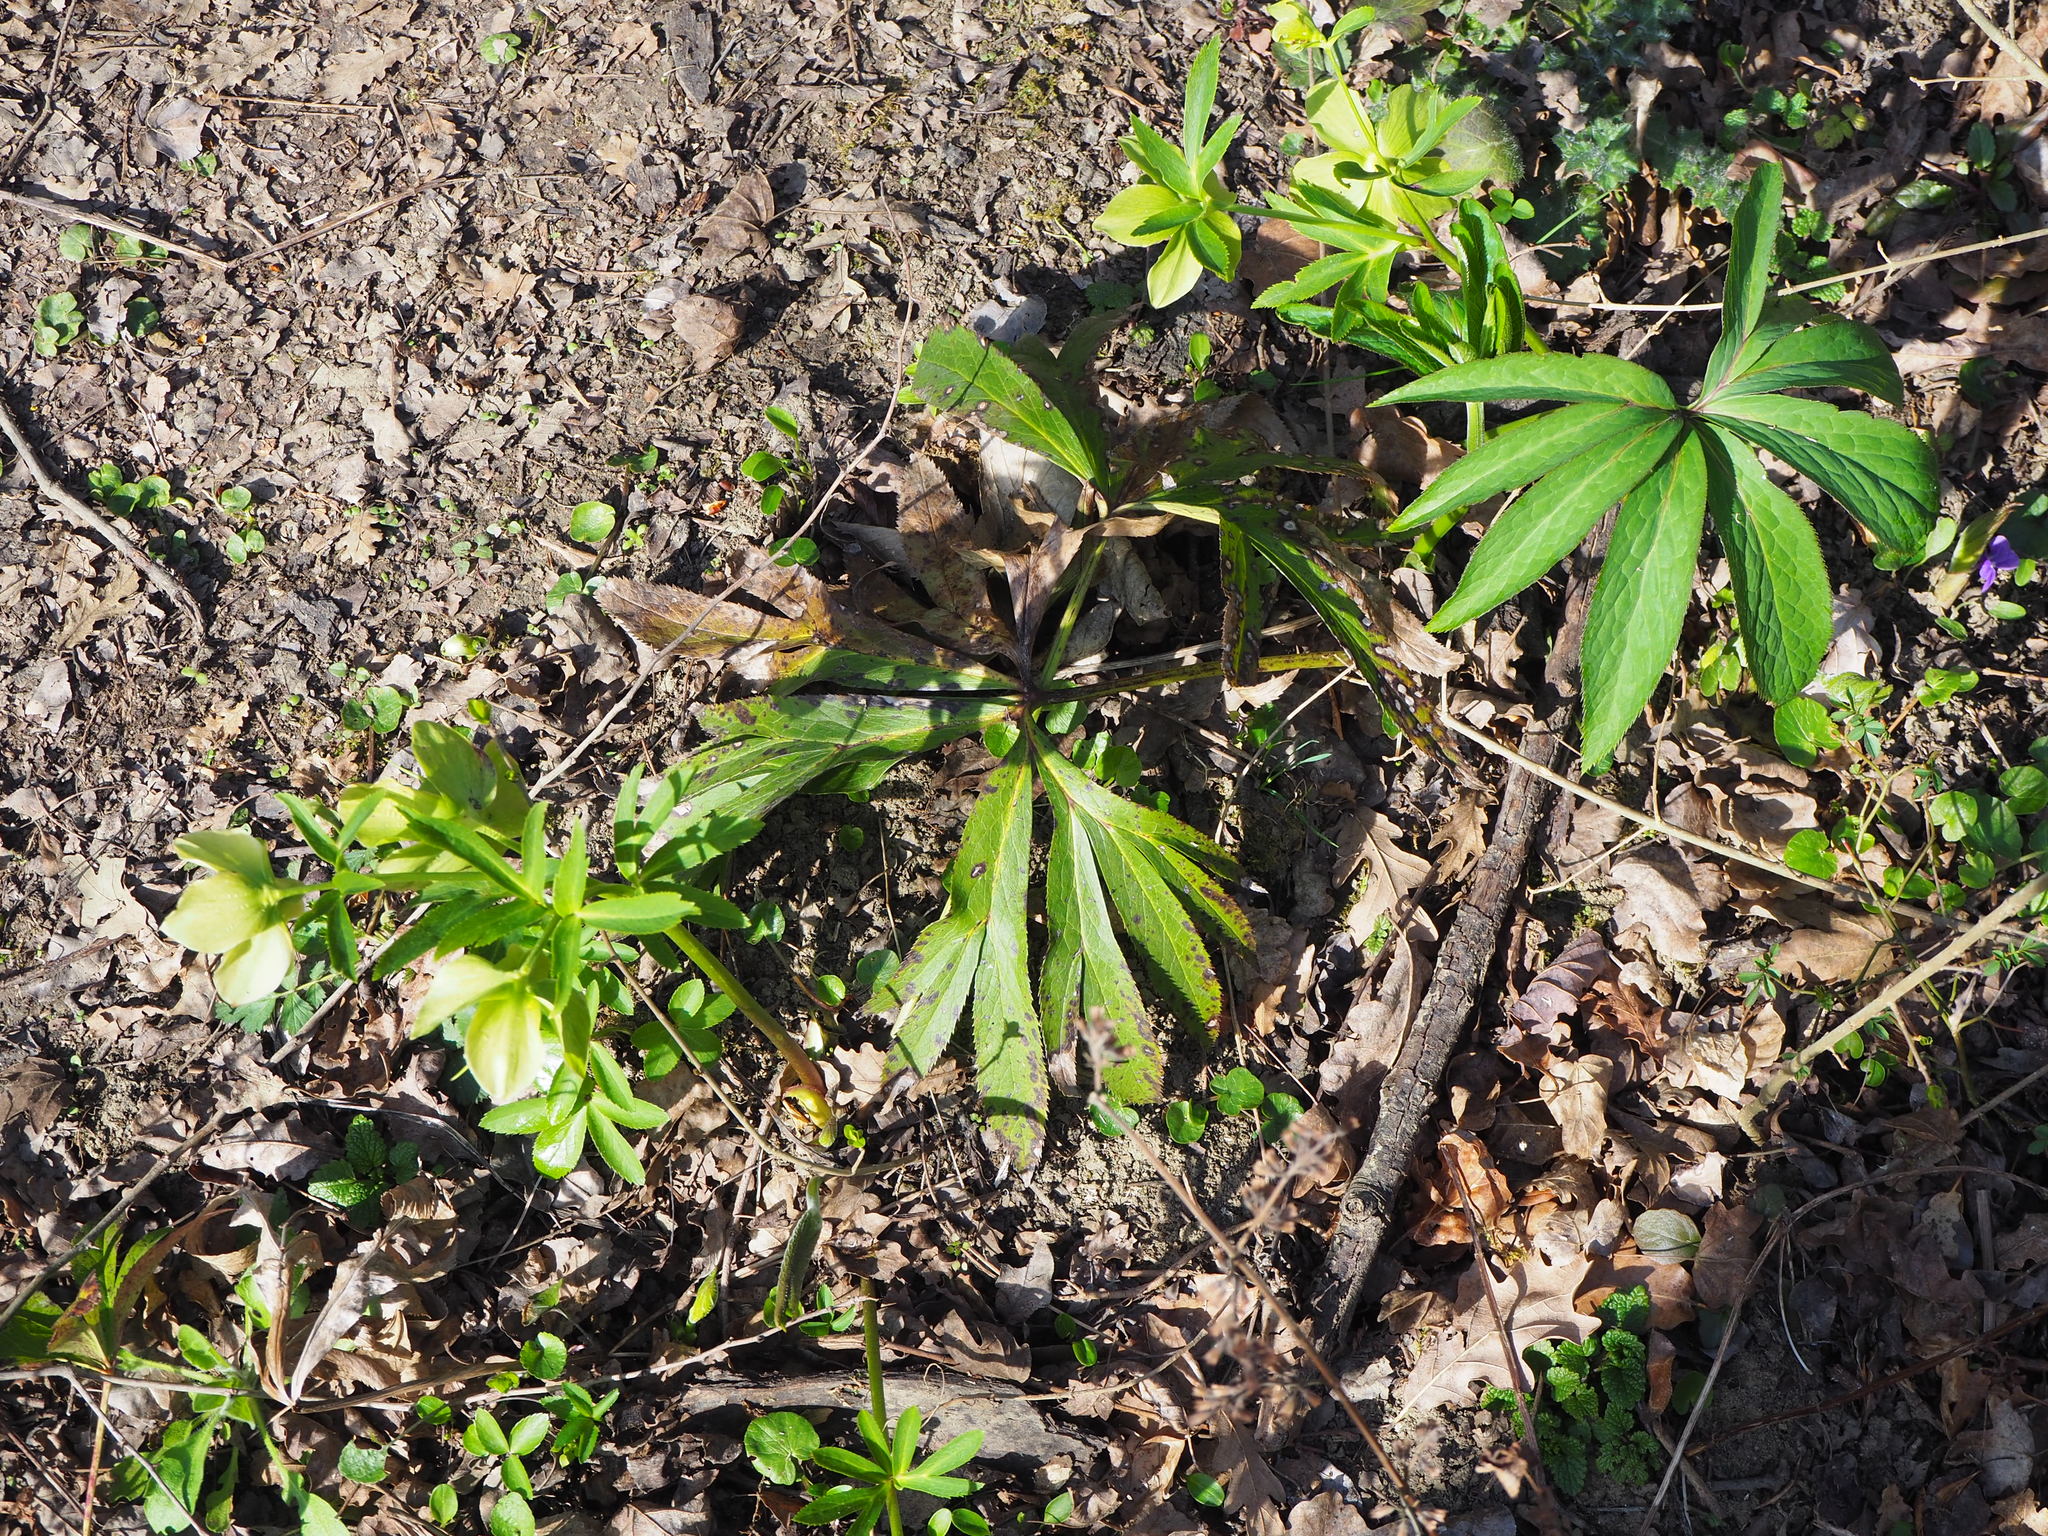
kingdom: Plantae
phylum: Tracheophyta
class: Magnoliopsida
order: Ranunculales
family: Ranunculaceae
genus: Helleborus
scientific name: Helleborus viridis
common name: Green hellebore
